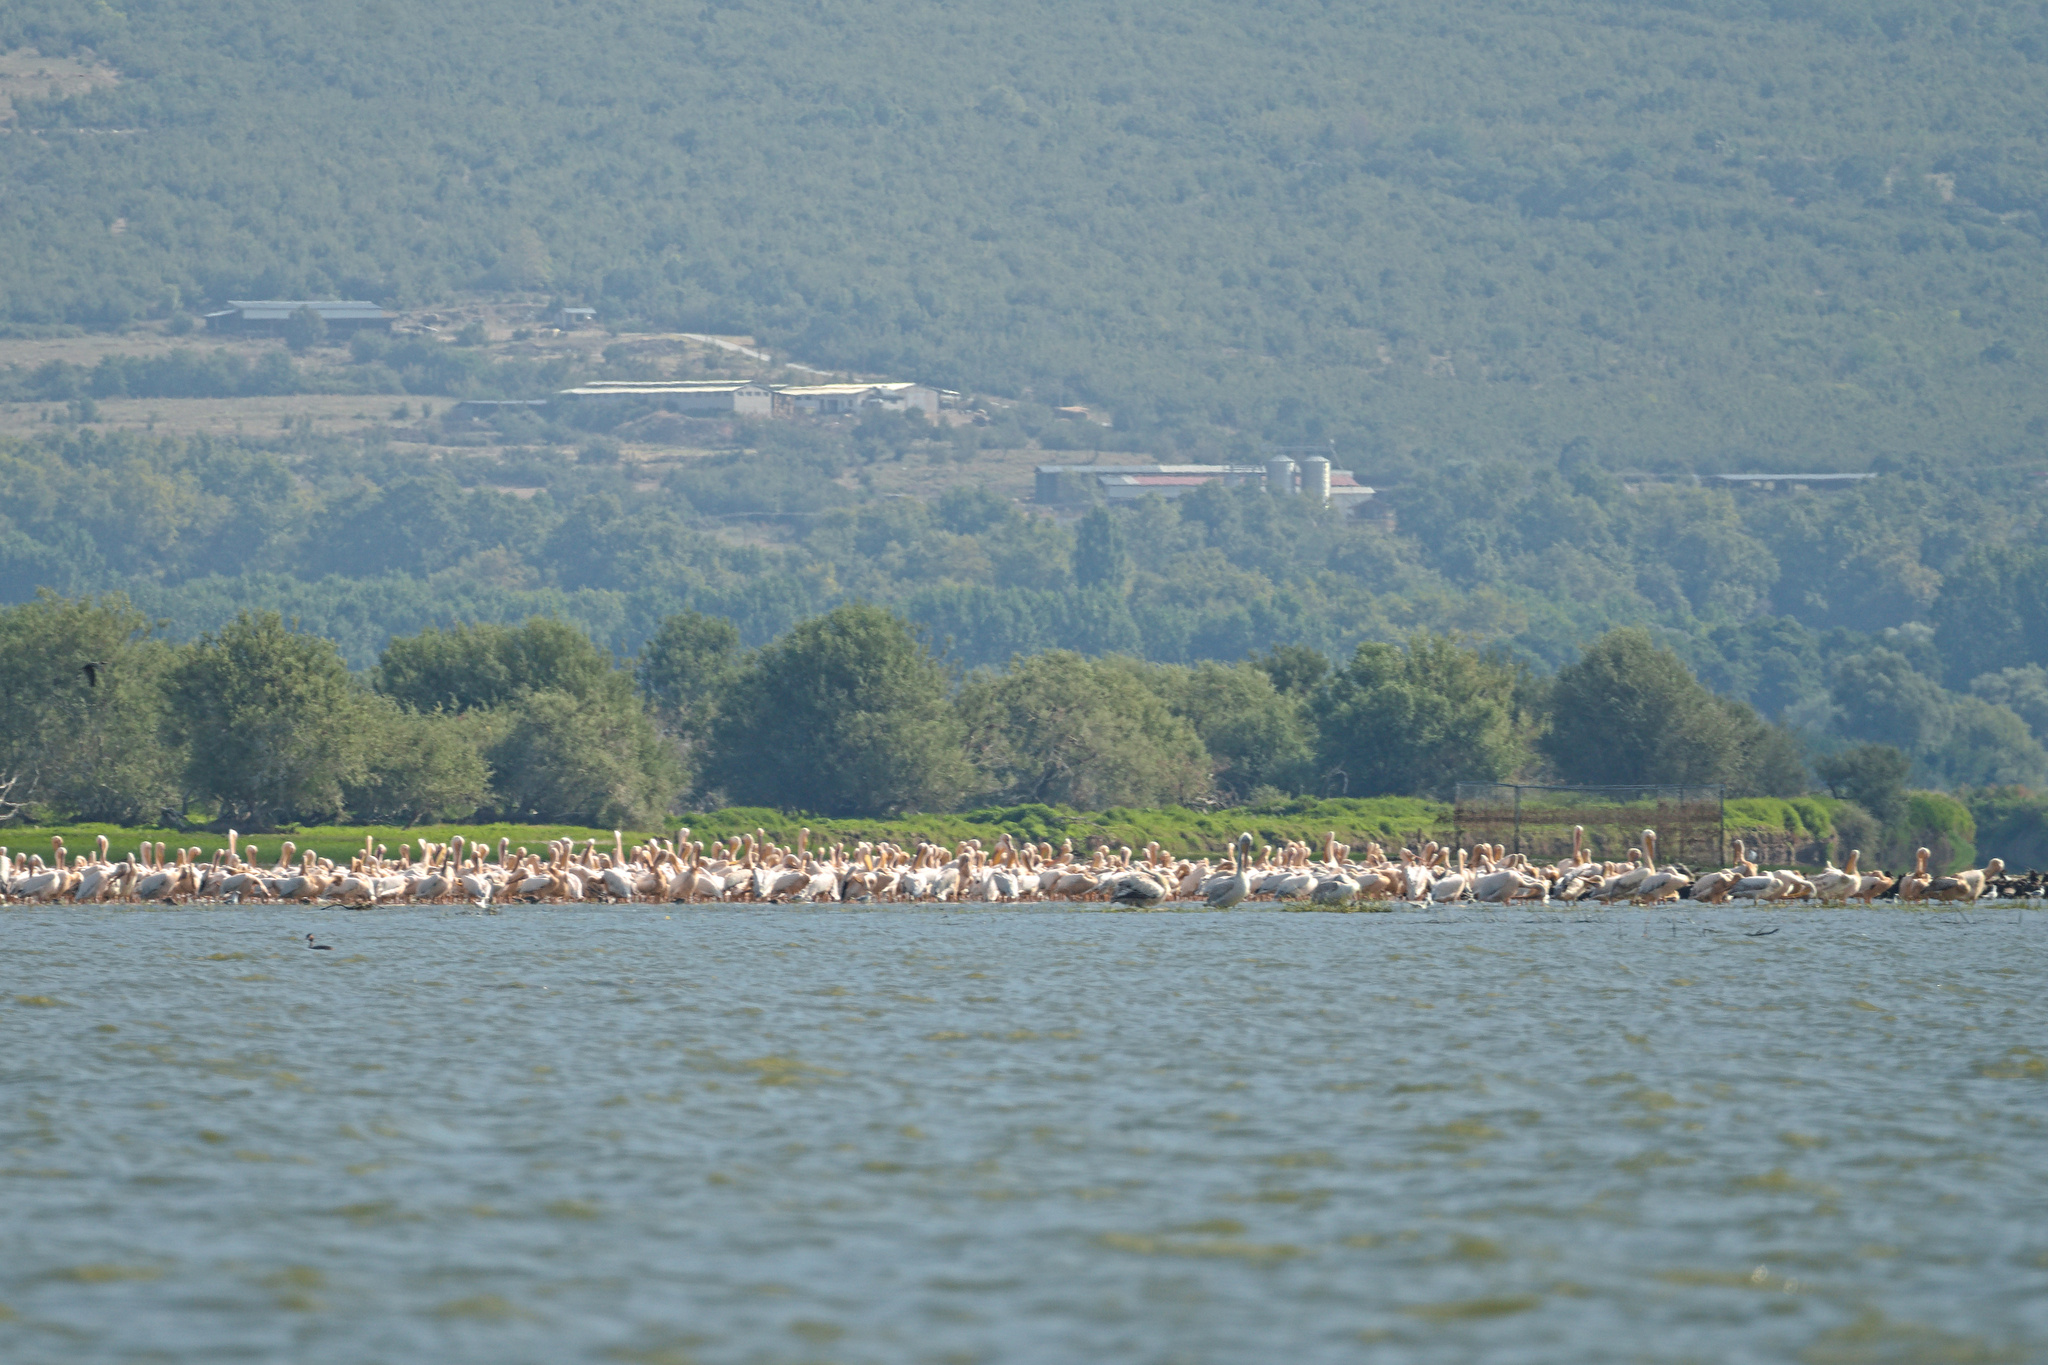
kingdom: Animalia
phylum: Chordata
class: Aves
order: Pelecaniformes
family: Pelecanidae
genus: Pelecanus
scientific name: Pelecanus onocrotalus
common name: Great white pelican
